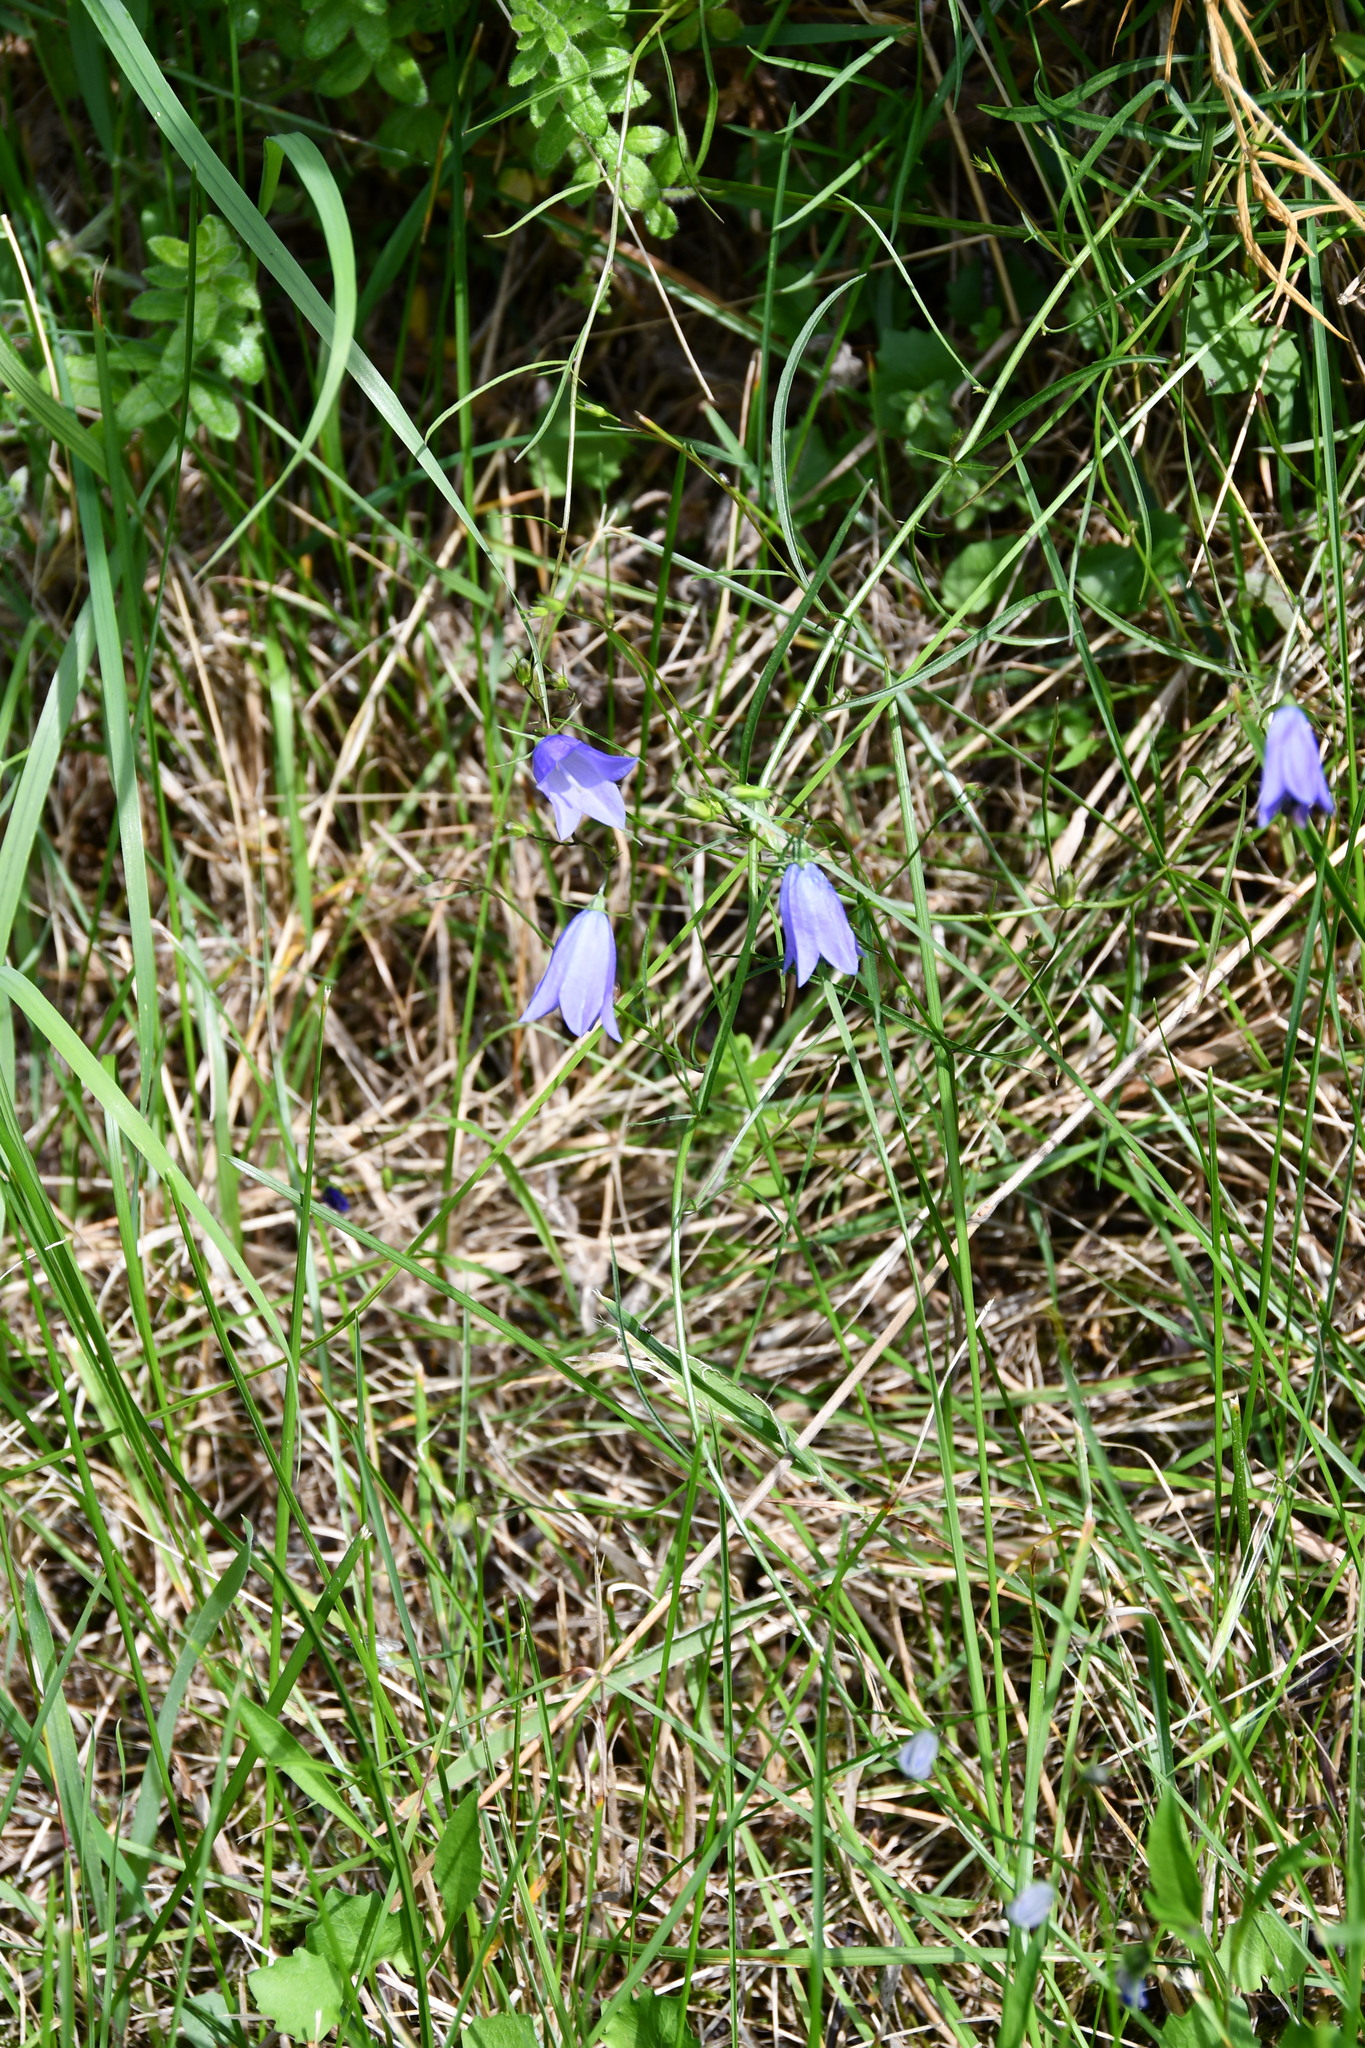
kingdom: Plantae
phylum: Tracheophyta
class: Magnoliopsida
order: Asterales
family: Campanulaceae
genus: Campanula
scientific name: Campanula rotundifolia
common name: Harebell
